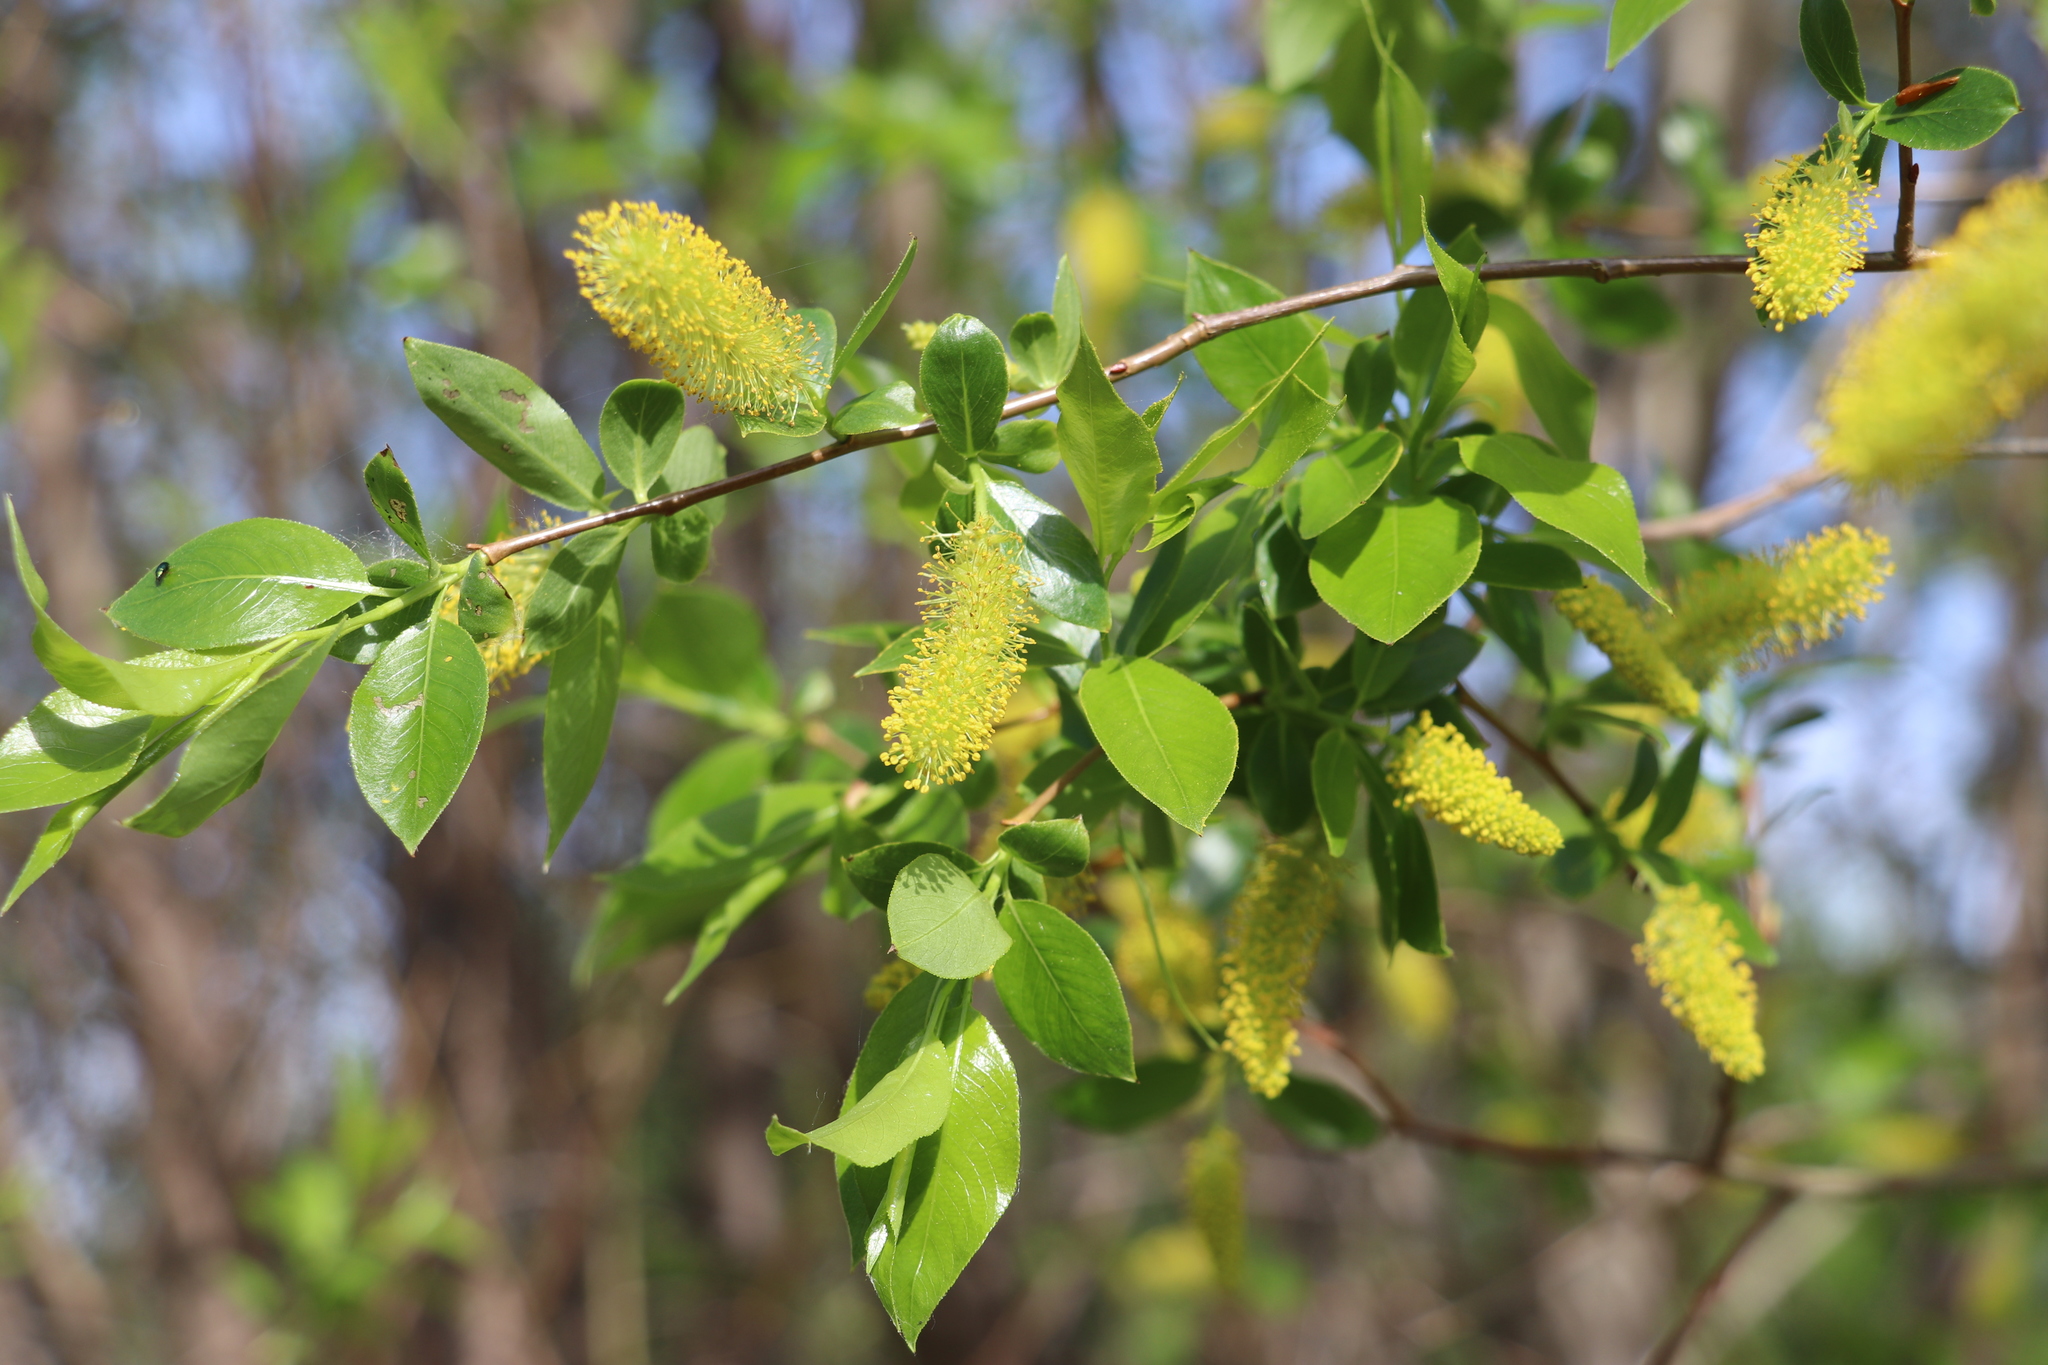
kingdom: Plantae
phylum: Tracheophyta
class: Magnoliopsida
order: Malpighiales
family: Salicaceae
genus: Salix
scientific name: Salix pentandra
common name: Bay willow
